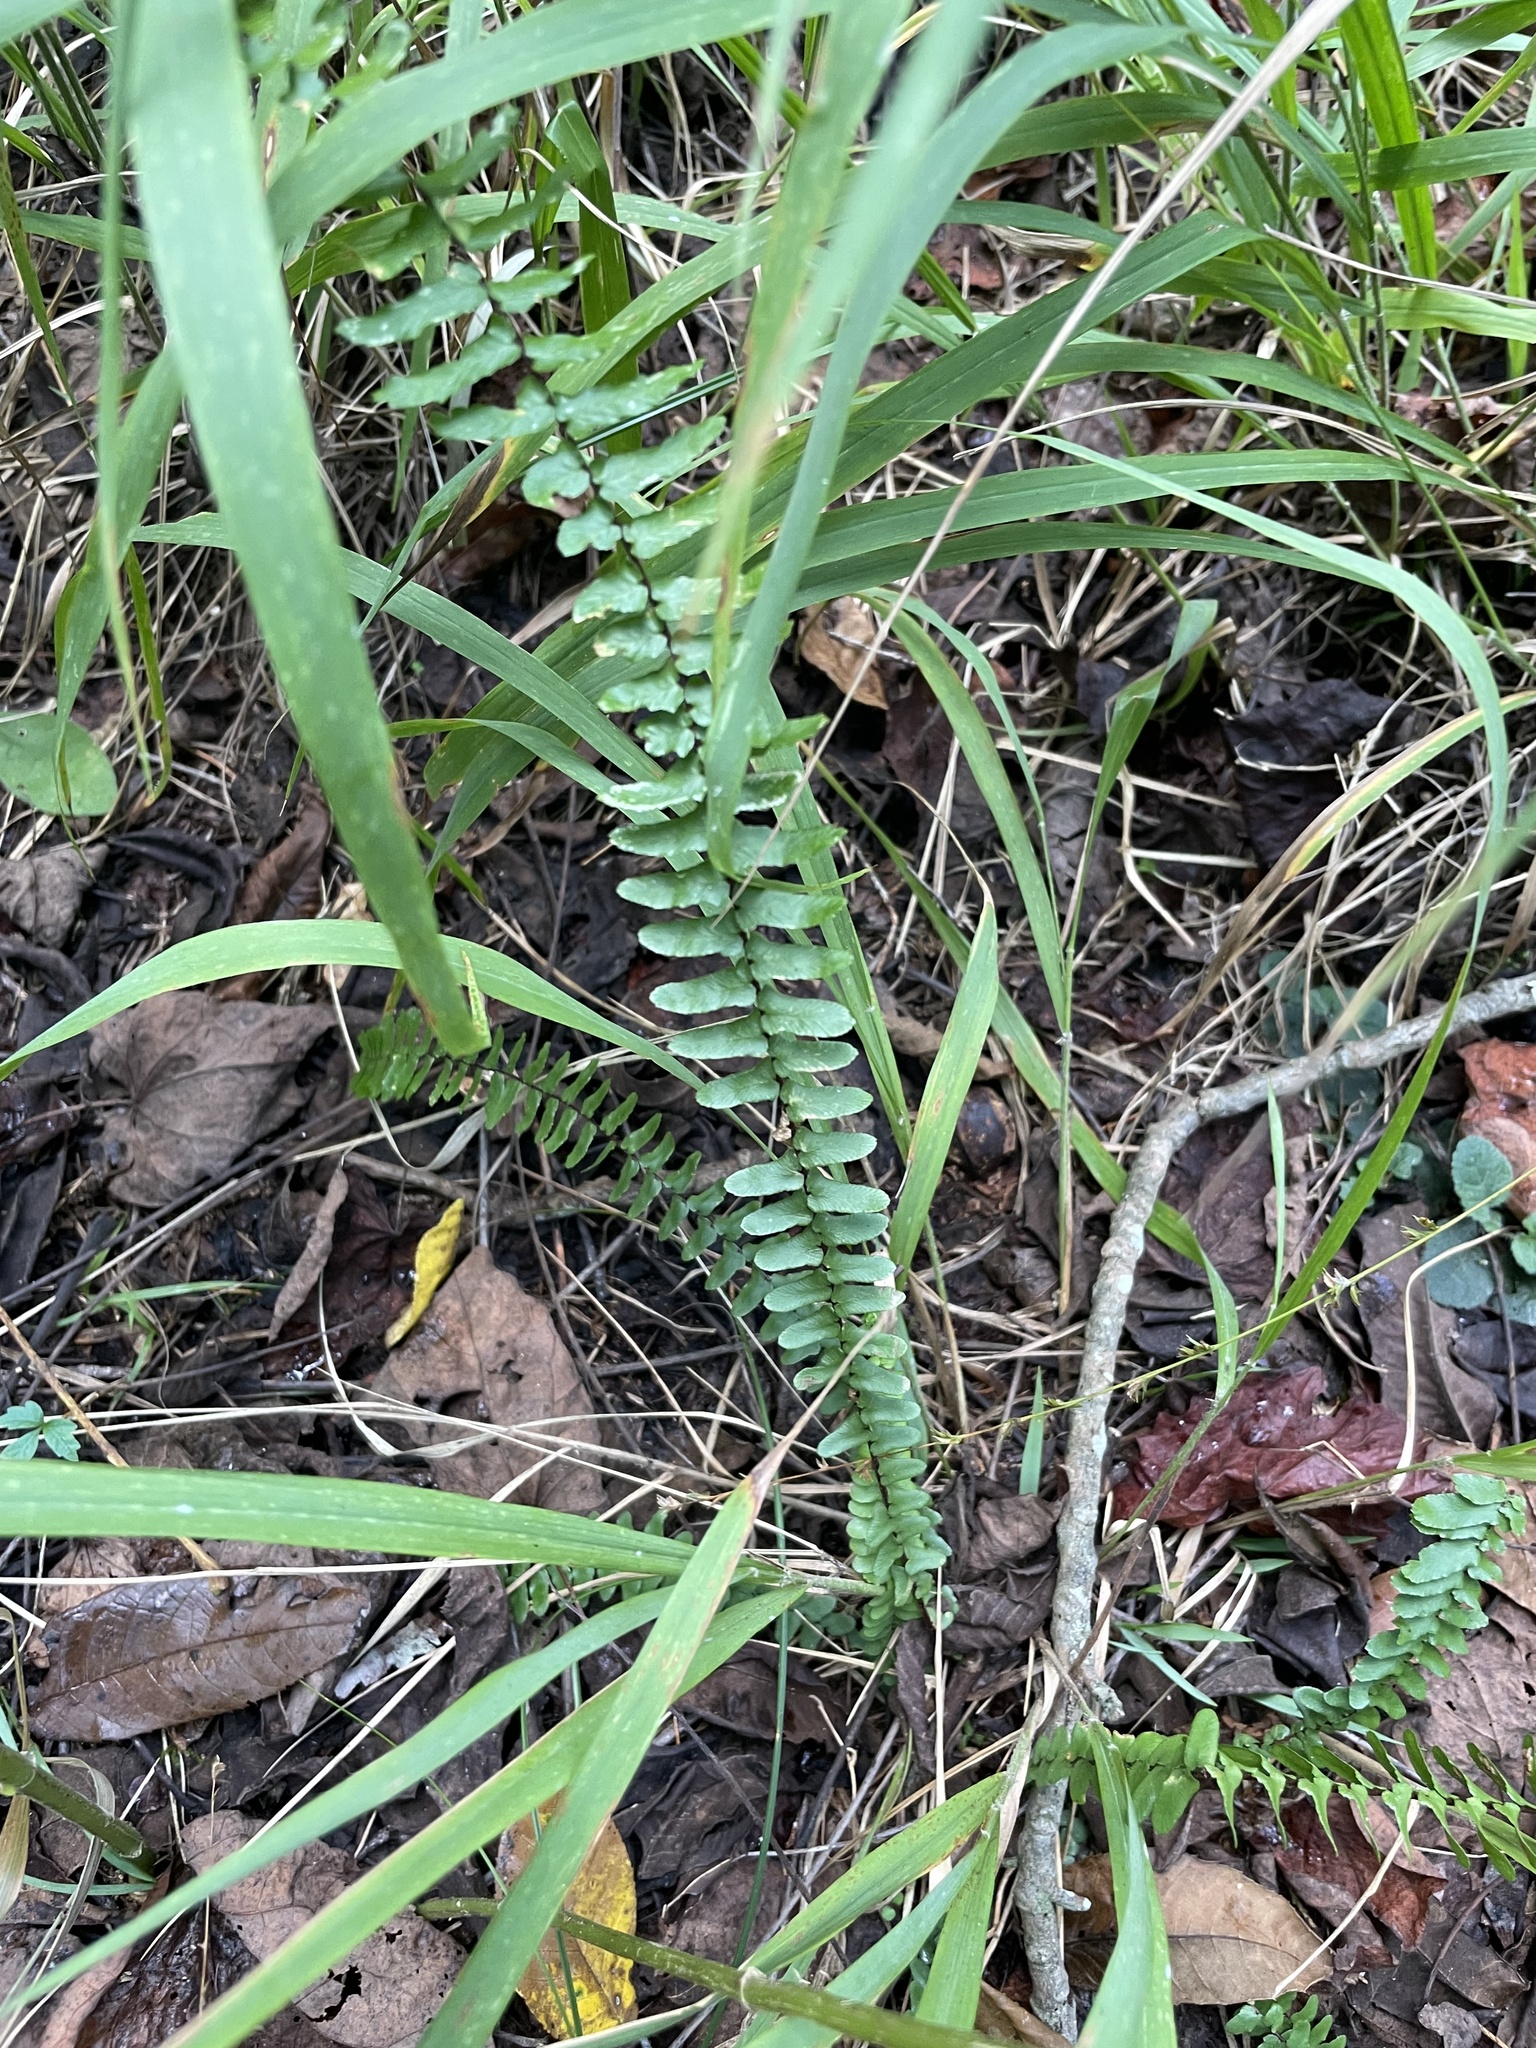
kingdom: Plantae
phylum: Tracheophyta
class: Polypodiopsida
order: Polypodiales
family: Aspleniaceae
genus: Asplenium
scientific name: Asplenium platyneuron
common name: Ebony spleenwort
